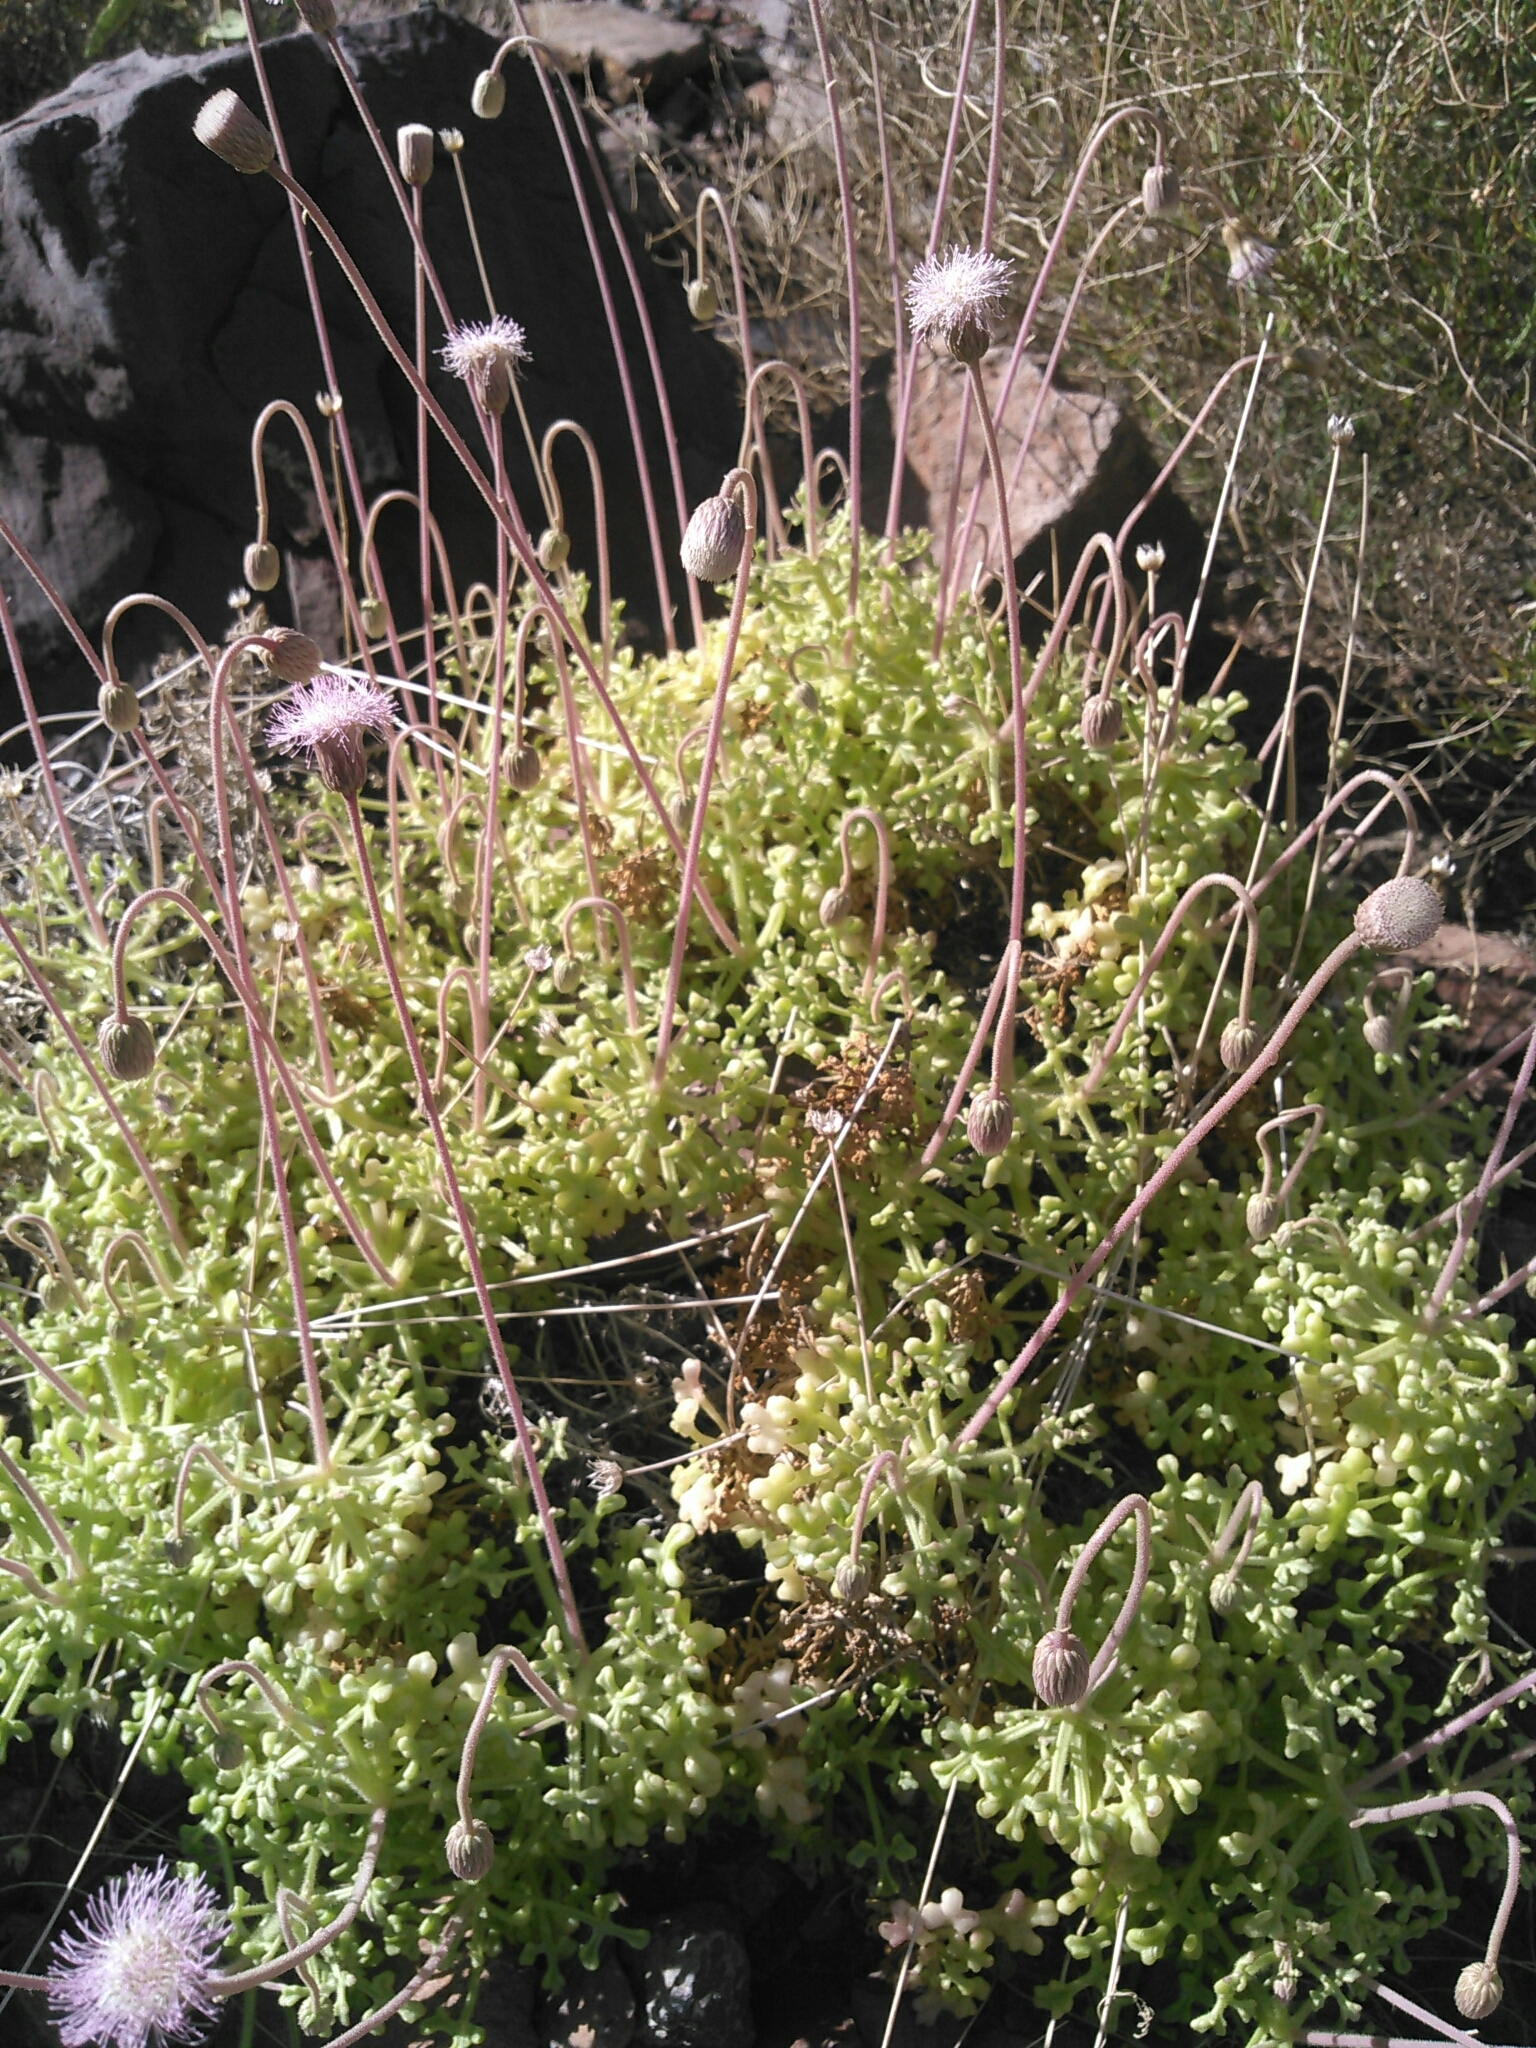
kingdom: Plantae
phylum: Tracheophyta
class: Magnoliopsida
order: Asterales
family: Asteraceae
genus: Hofmeisteria
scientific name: Hofmeisteria fasciculata
